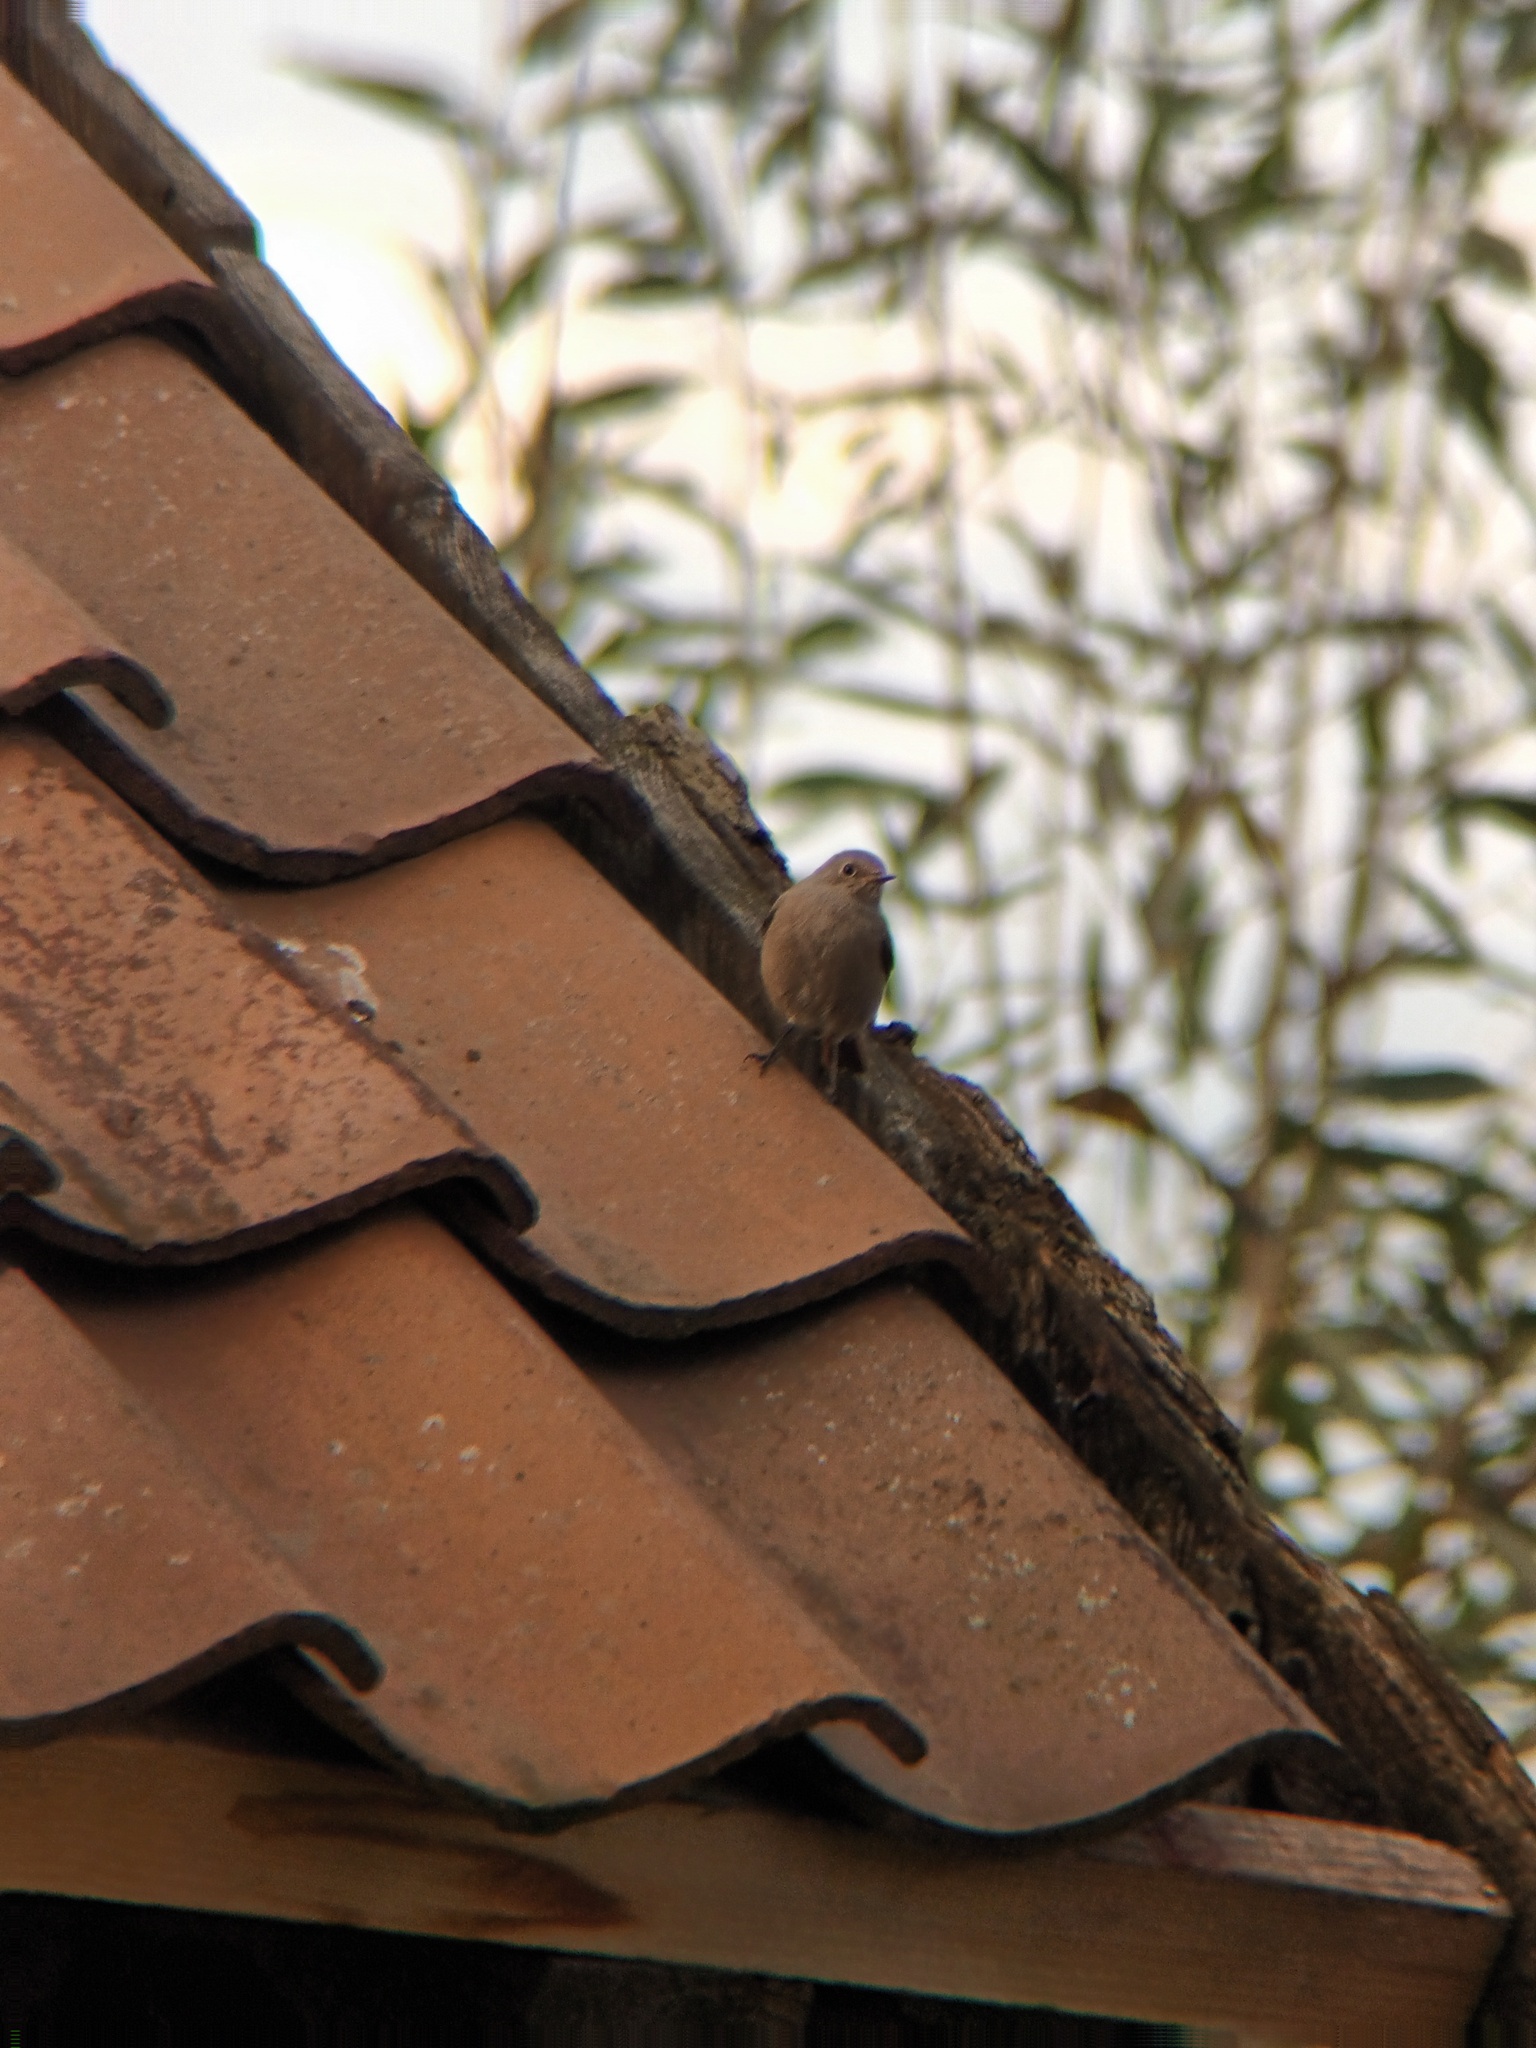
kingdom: Animalia
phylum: Chordata
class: Aves
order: Passeriformes
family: Muscicapidae
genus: Phoenicurus
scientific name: Phoenicurus ochruros
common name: Black redstart
